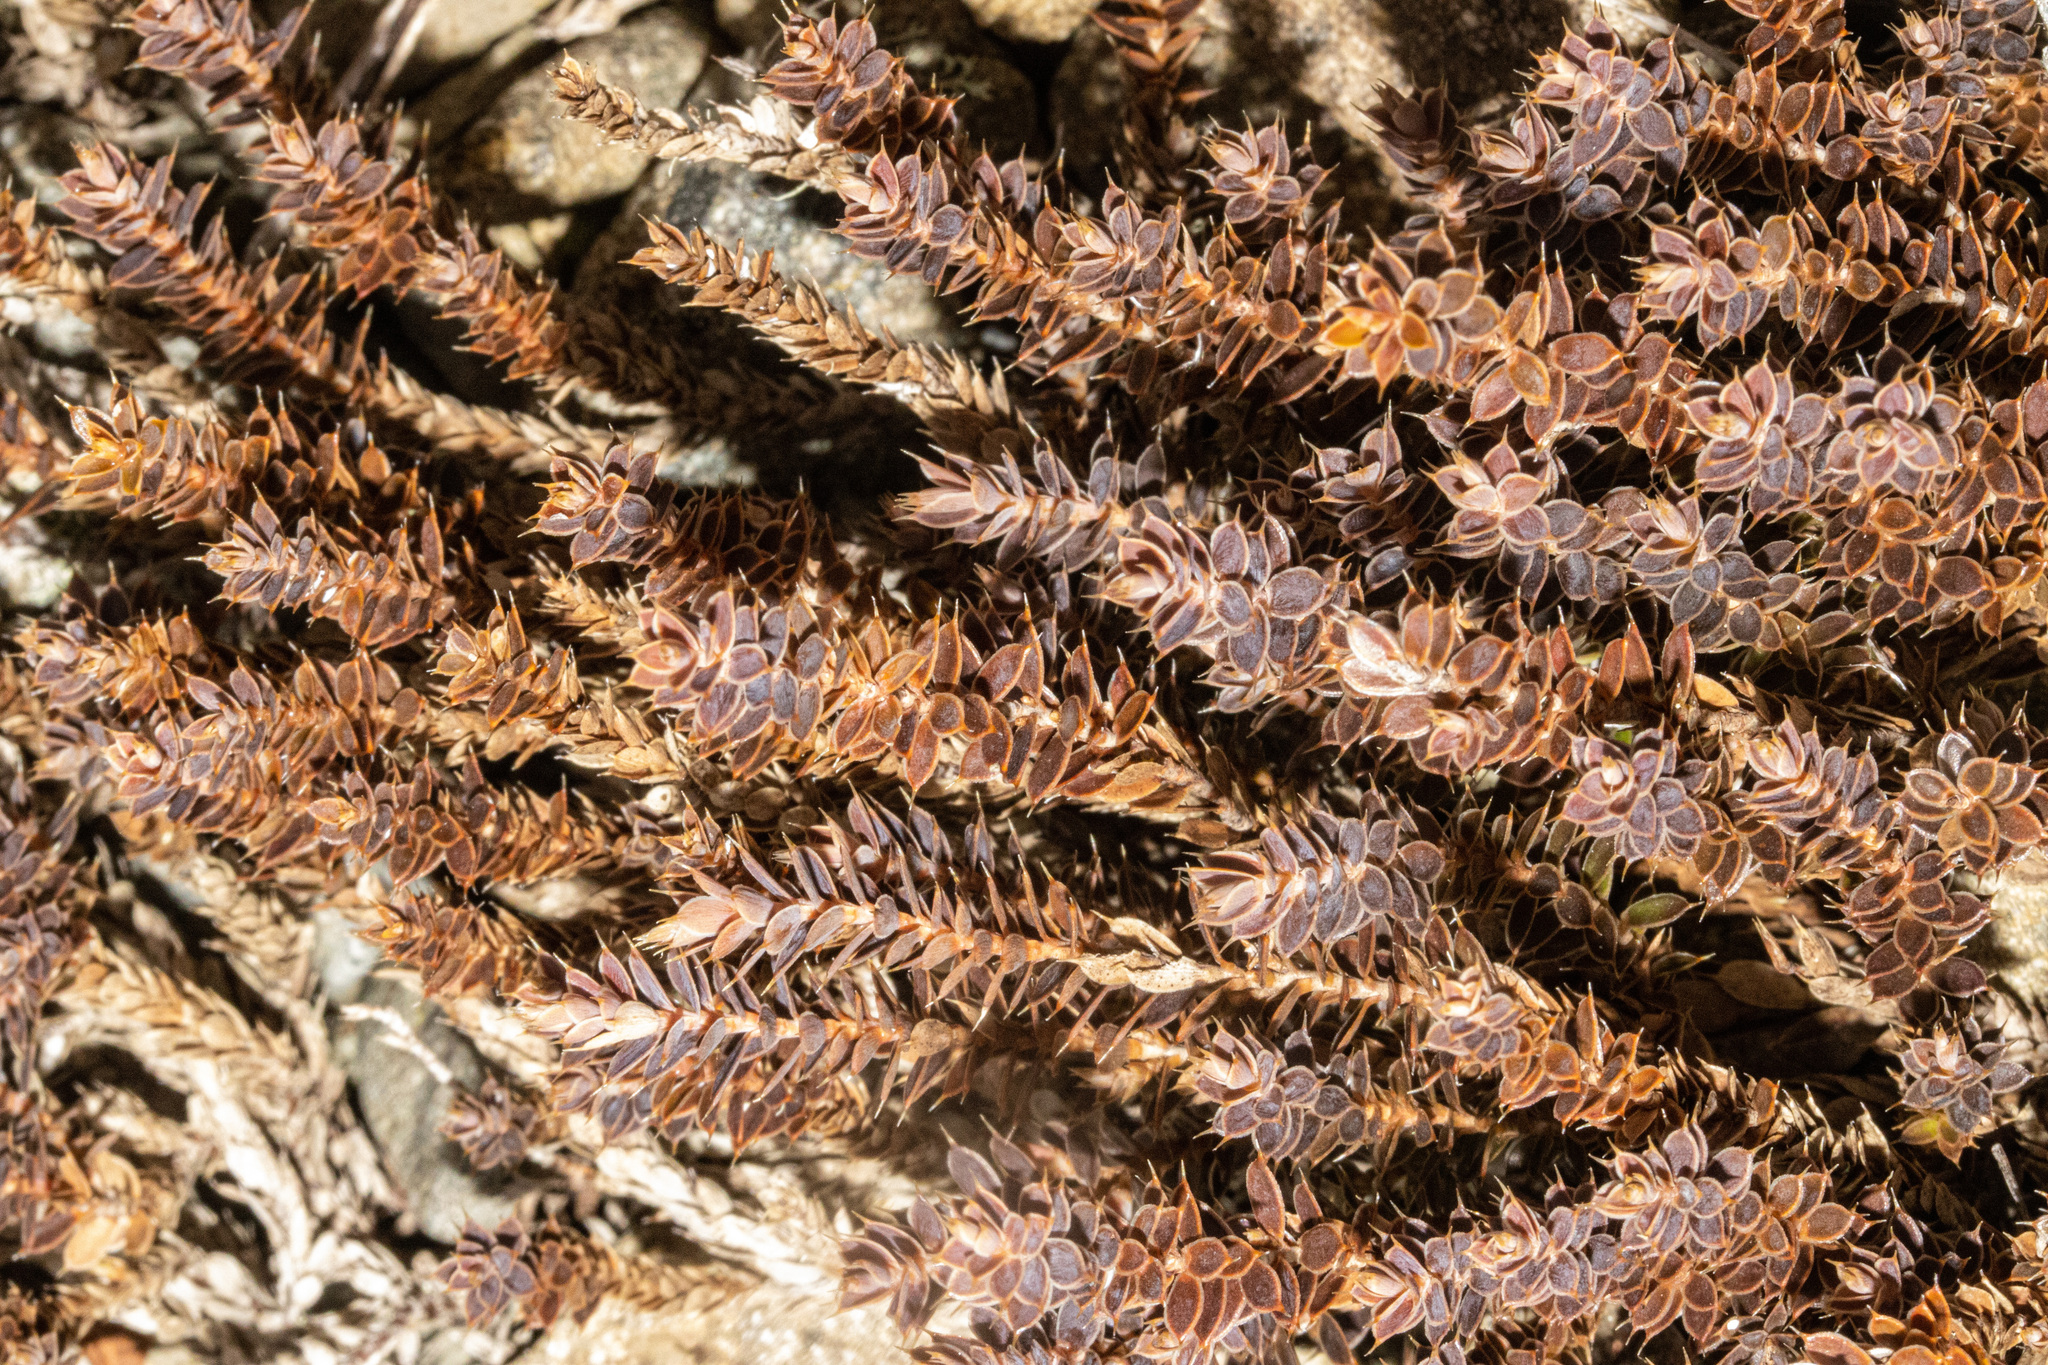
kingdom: Plantae
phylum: Tracheophyta
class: Magnoliopsida
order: Ericales
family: Ericaceae
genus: Styphelia
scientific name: Styphelia nesophila
